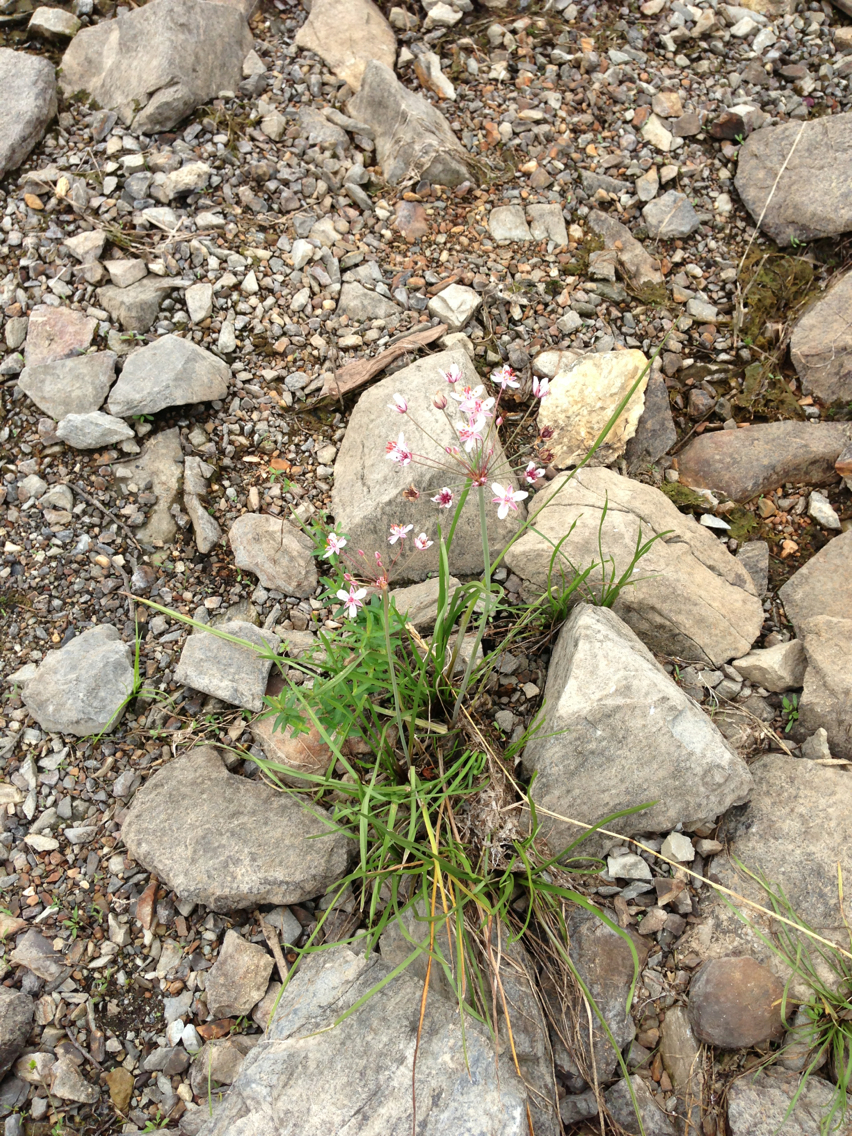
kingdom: Plantae
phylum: Tracheophyta
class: Liliopsida
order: Alismatales
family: Butomaceae
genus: Butomus
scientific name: Butomus umbellatus
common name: Flowering-rush
